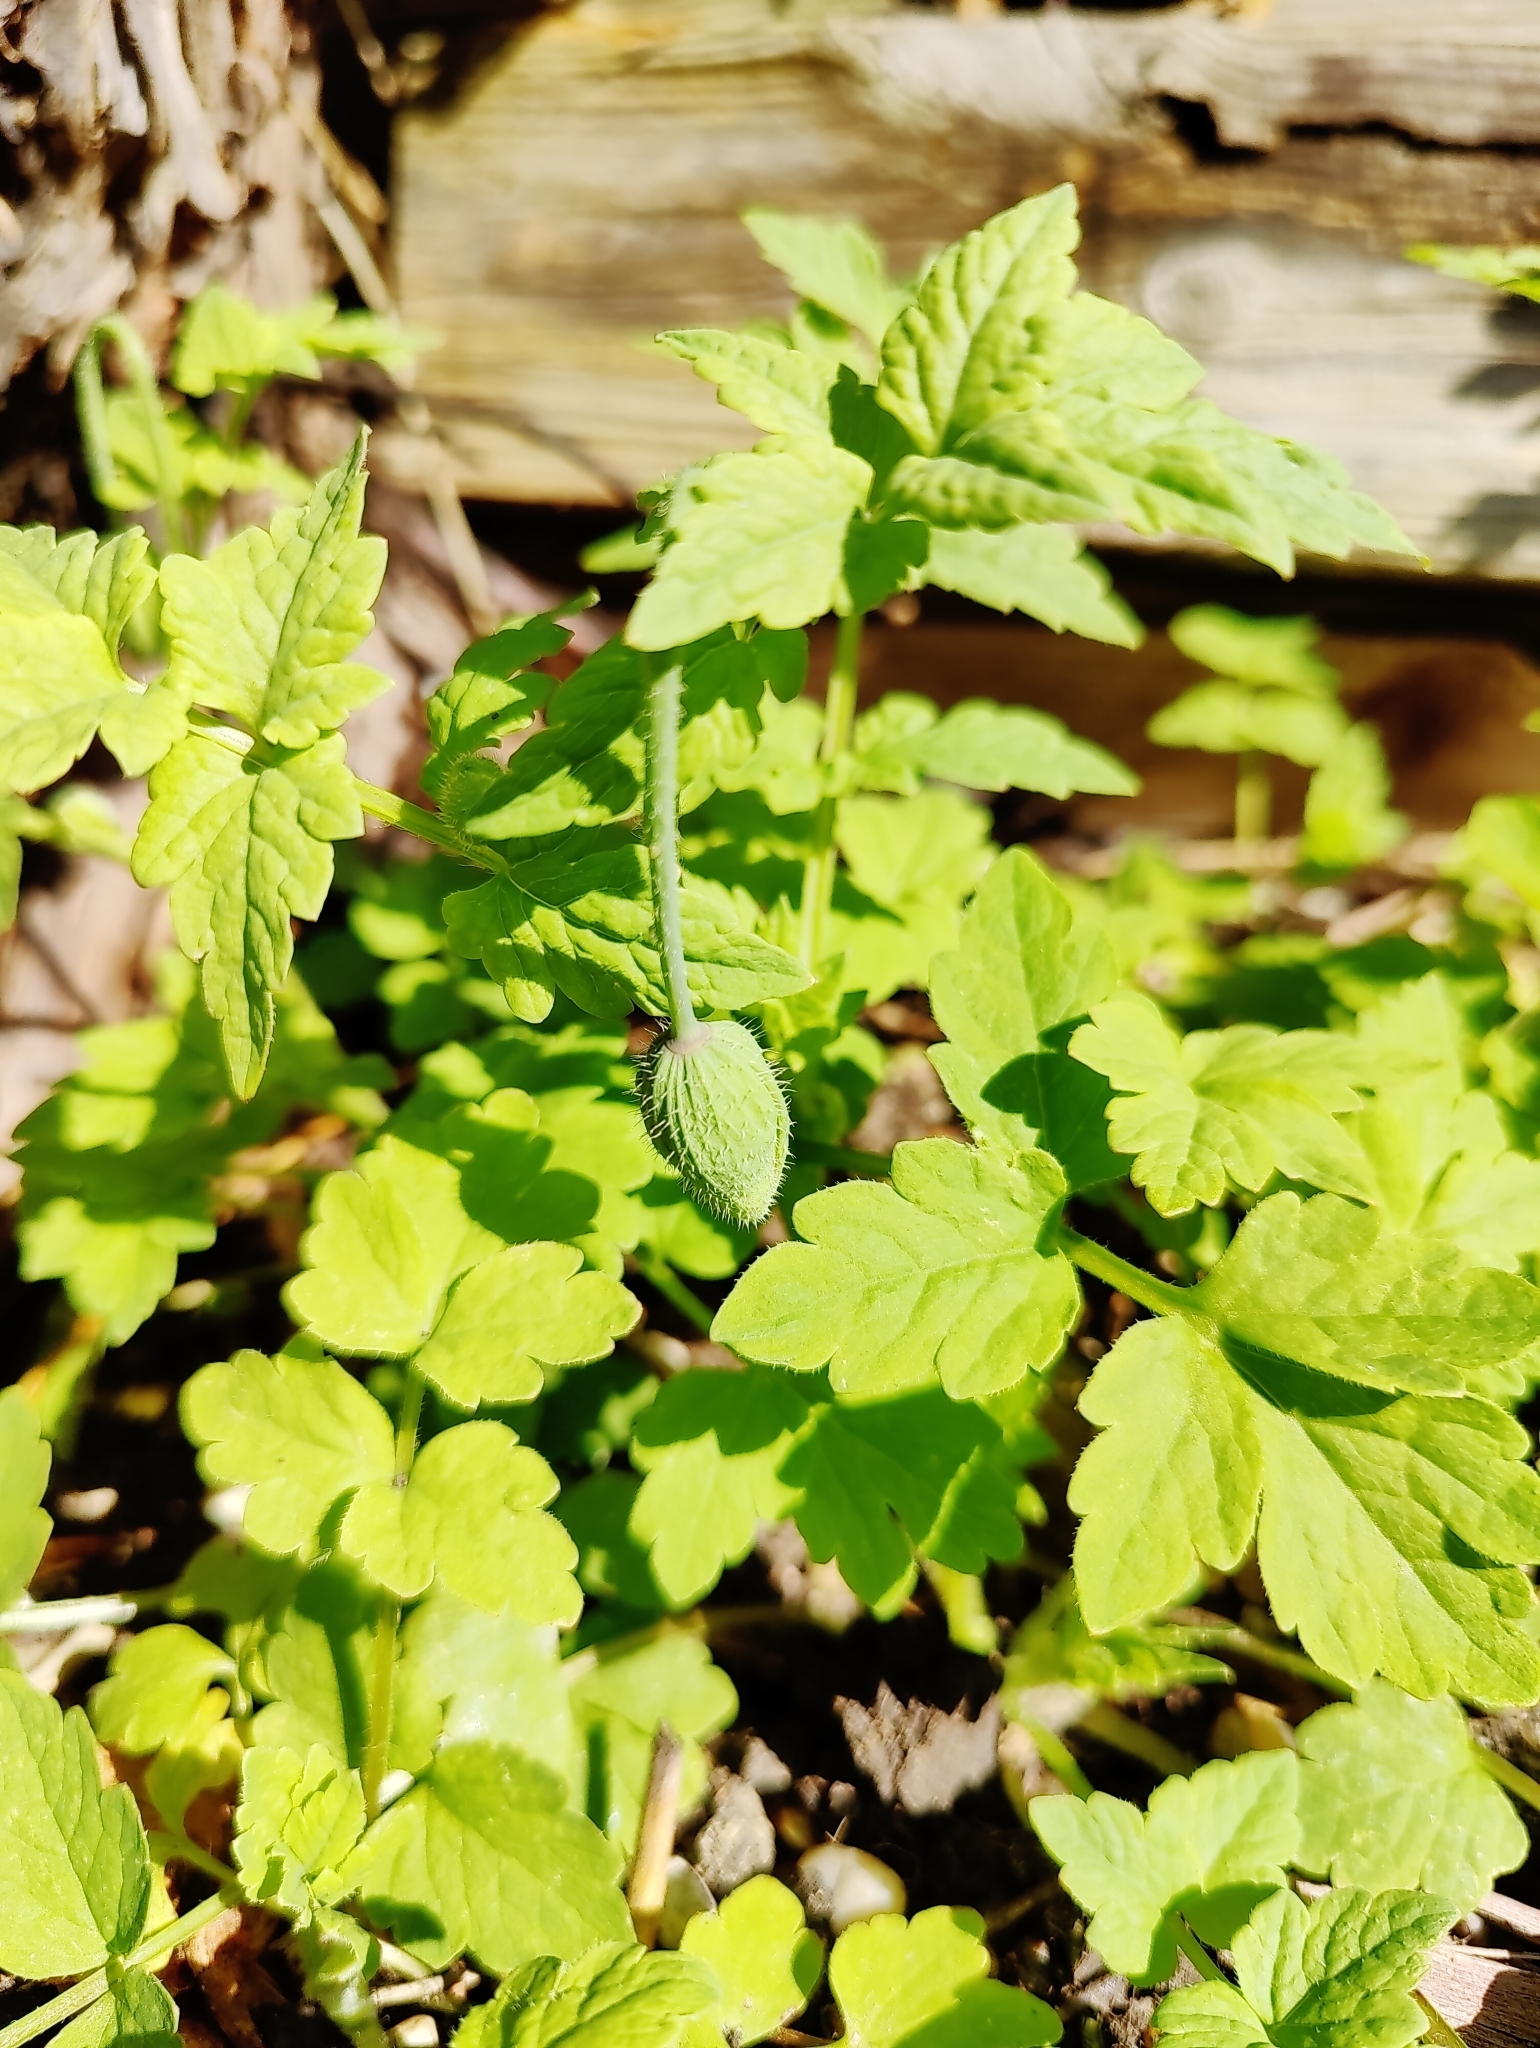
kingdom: Plantae
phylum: Tracheophyta
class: Magnoliopsida
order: Ranunculales
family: Papaveraceae
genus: Papaver
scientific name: Papaver cambricum
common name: Poppy
